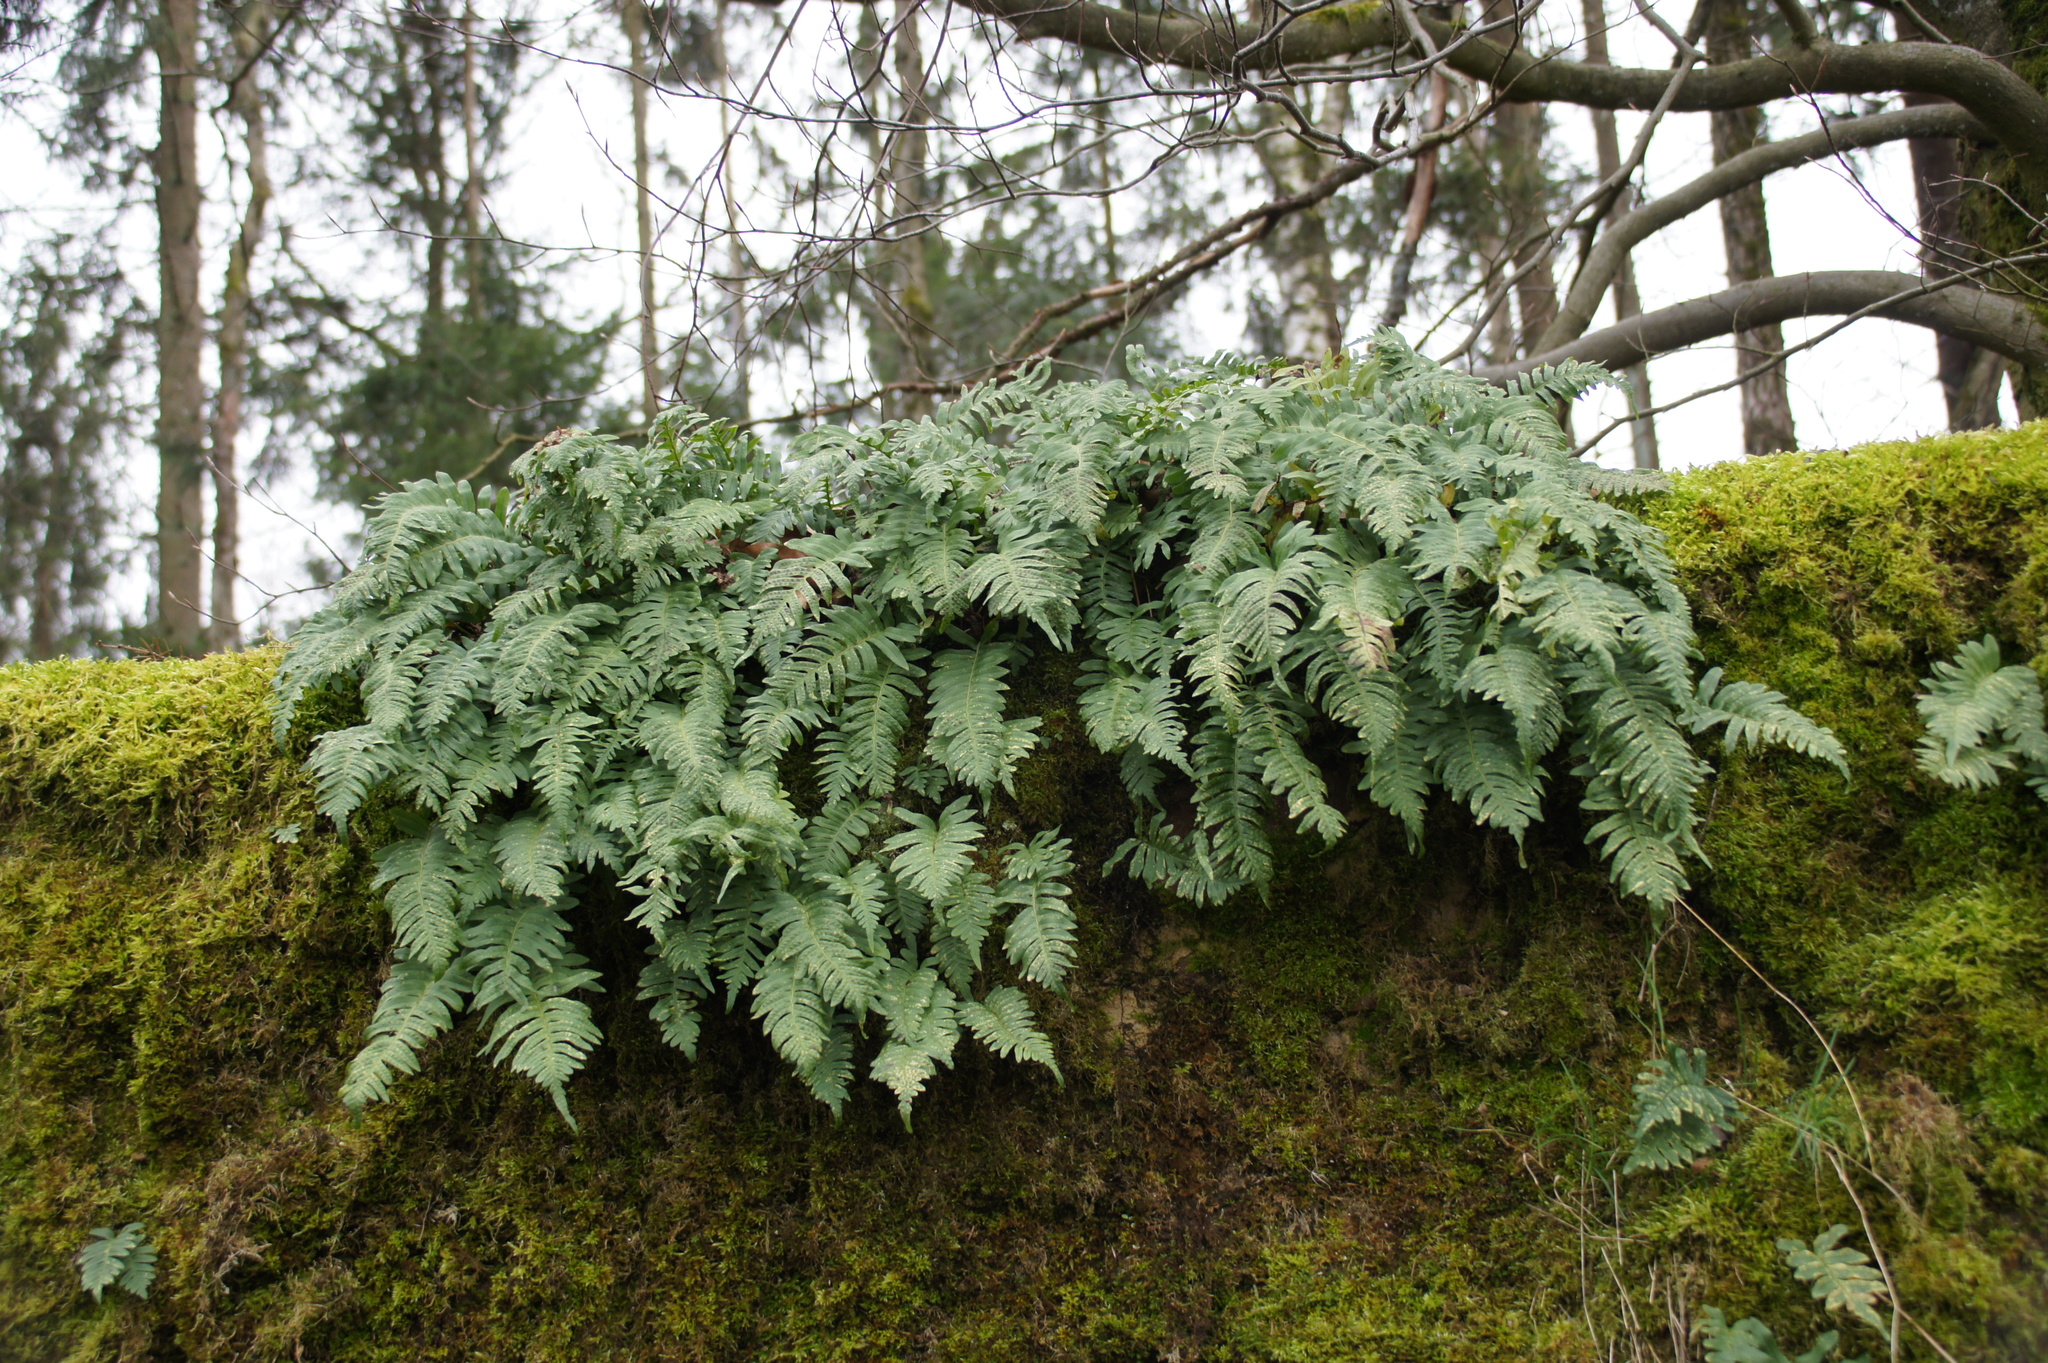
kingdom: Plantae
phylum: Tracheophyta
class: Polypodiopsida
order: Polypodiales
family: Polypodiaceae
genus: Polypodium
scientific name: Polypodium vulgare
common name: Common polypody
